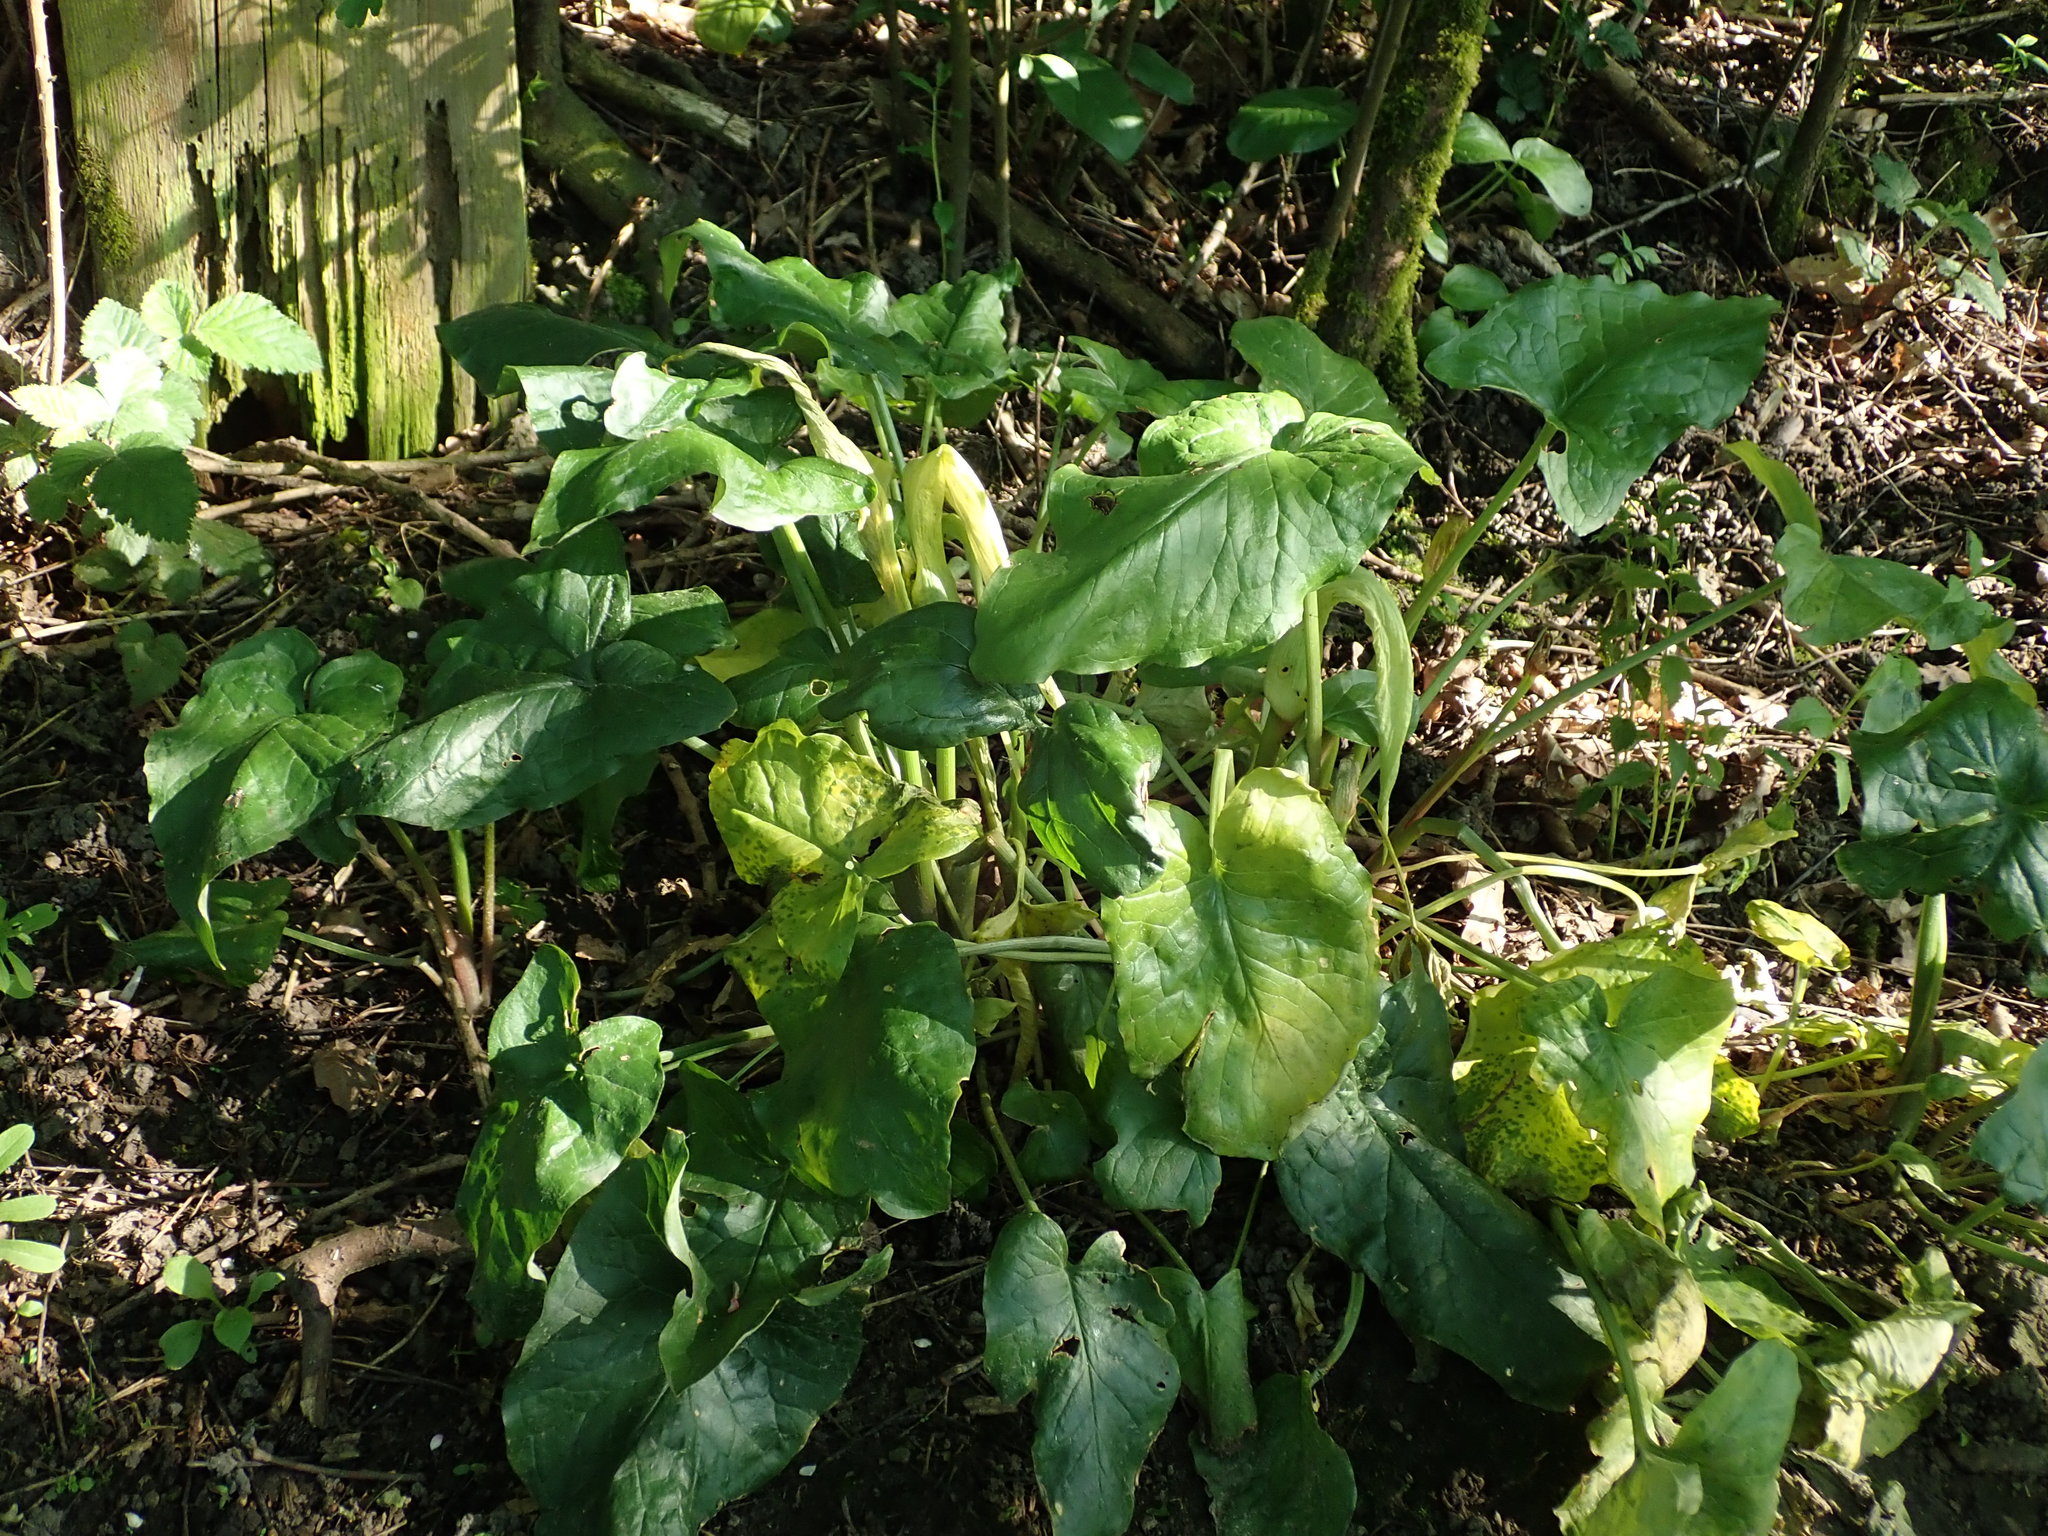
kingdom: Plantae
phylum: Tracheophyta
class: Liliopsida
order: Alismatales
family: Araceae
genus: Arum
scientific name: Arum maculatum
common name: Lords-and-ladies
